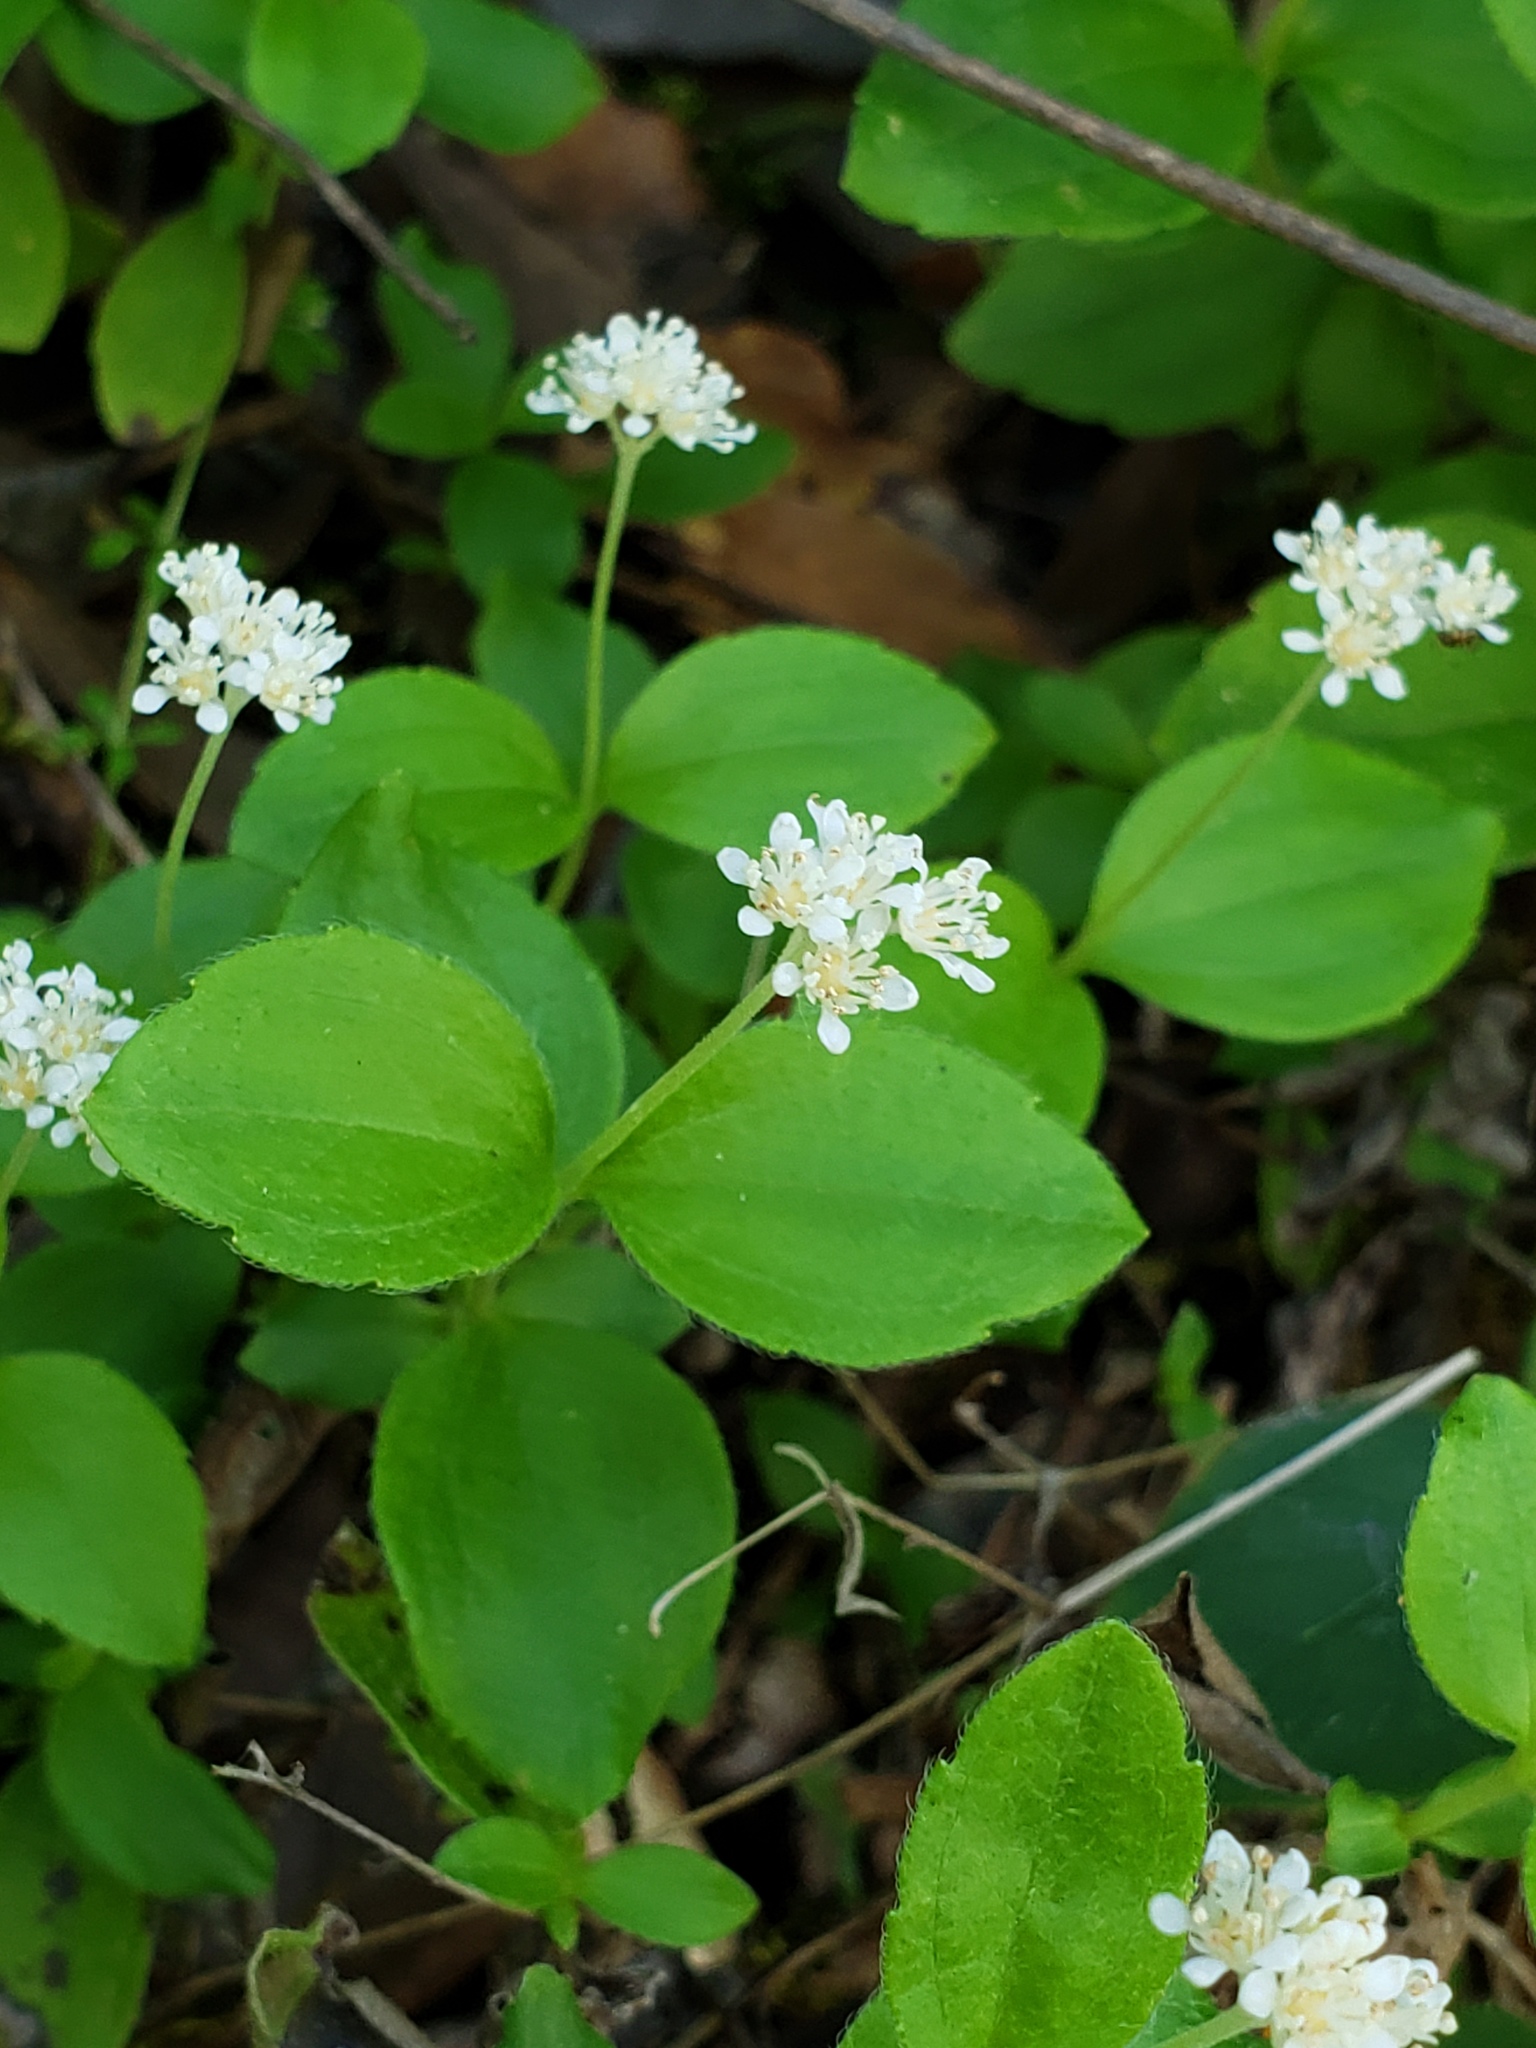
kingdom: Plantae
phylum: Tracheophyta
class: Magnoliopsida
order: Cornales
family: Hydrangeaceae
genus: Whipplea
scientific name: Whipplea modesta
